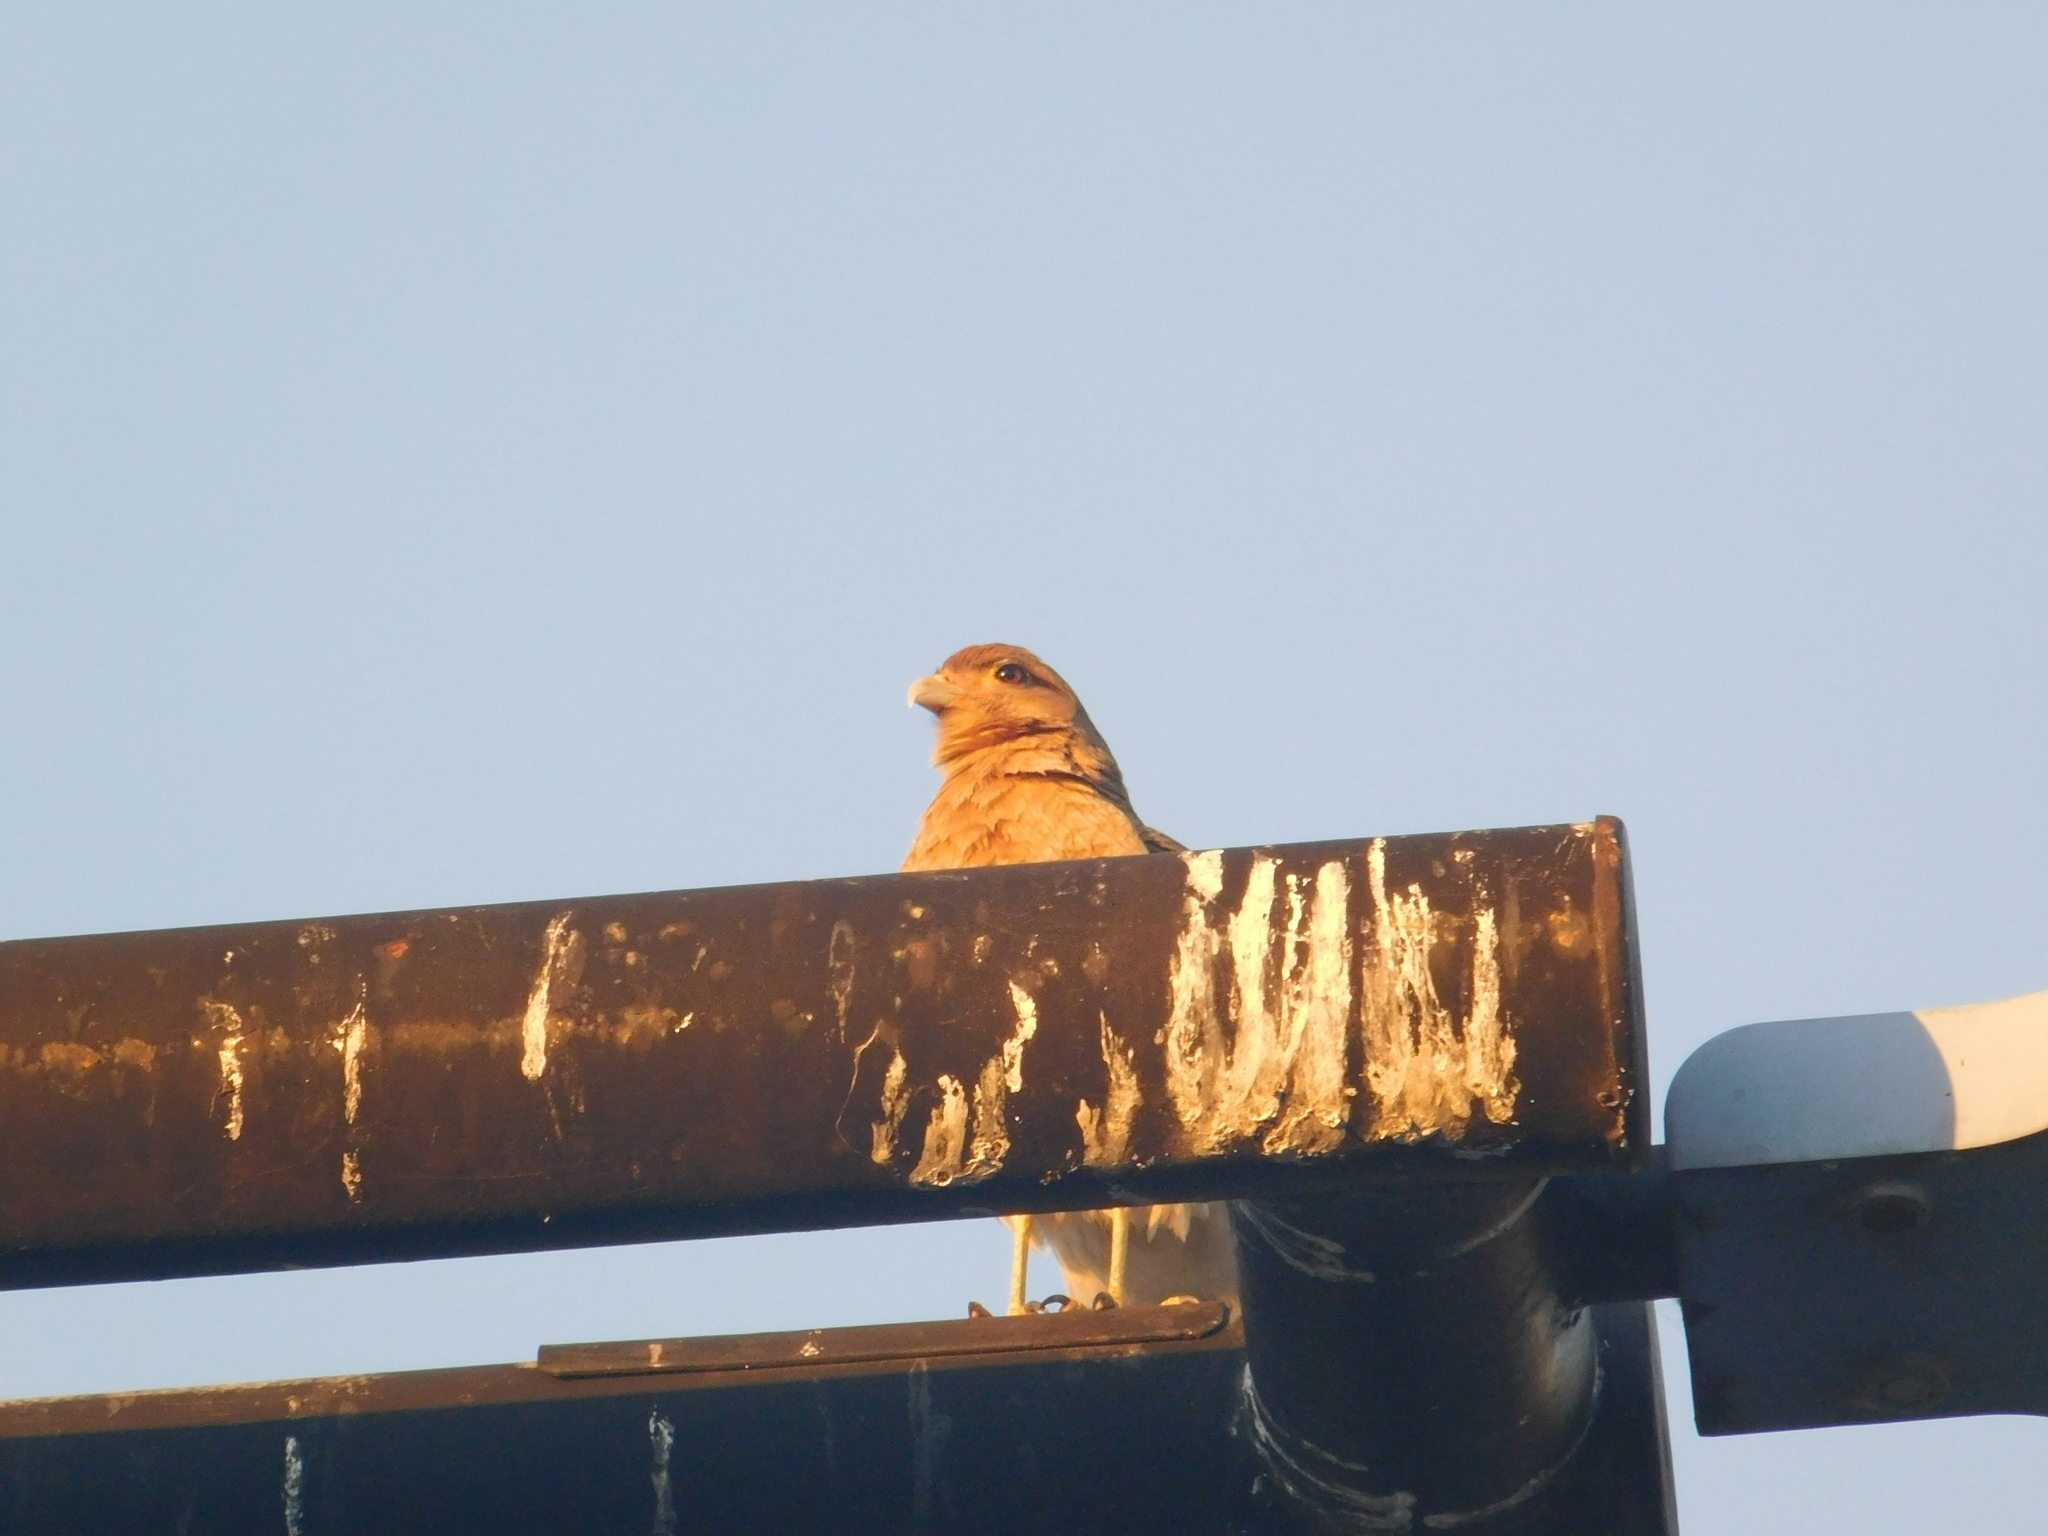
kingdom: Animalia
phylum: Chordata
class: Aves
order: Falconiformes
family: Falconidae
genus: Daptrius
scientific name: Daptrius
